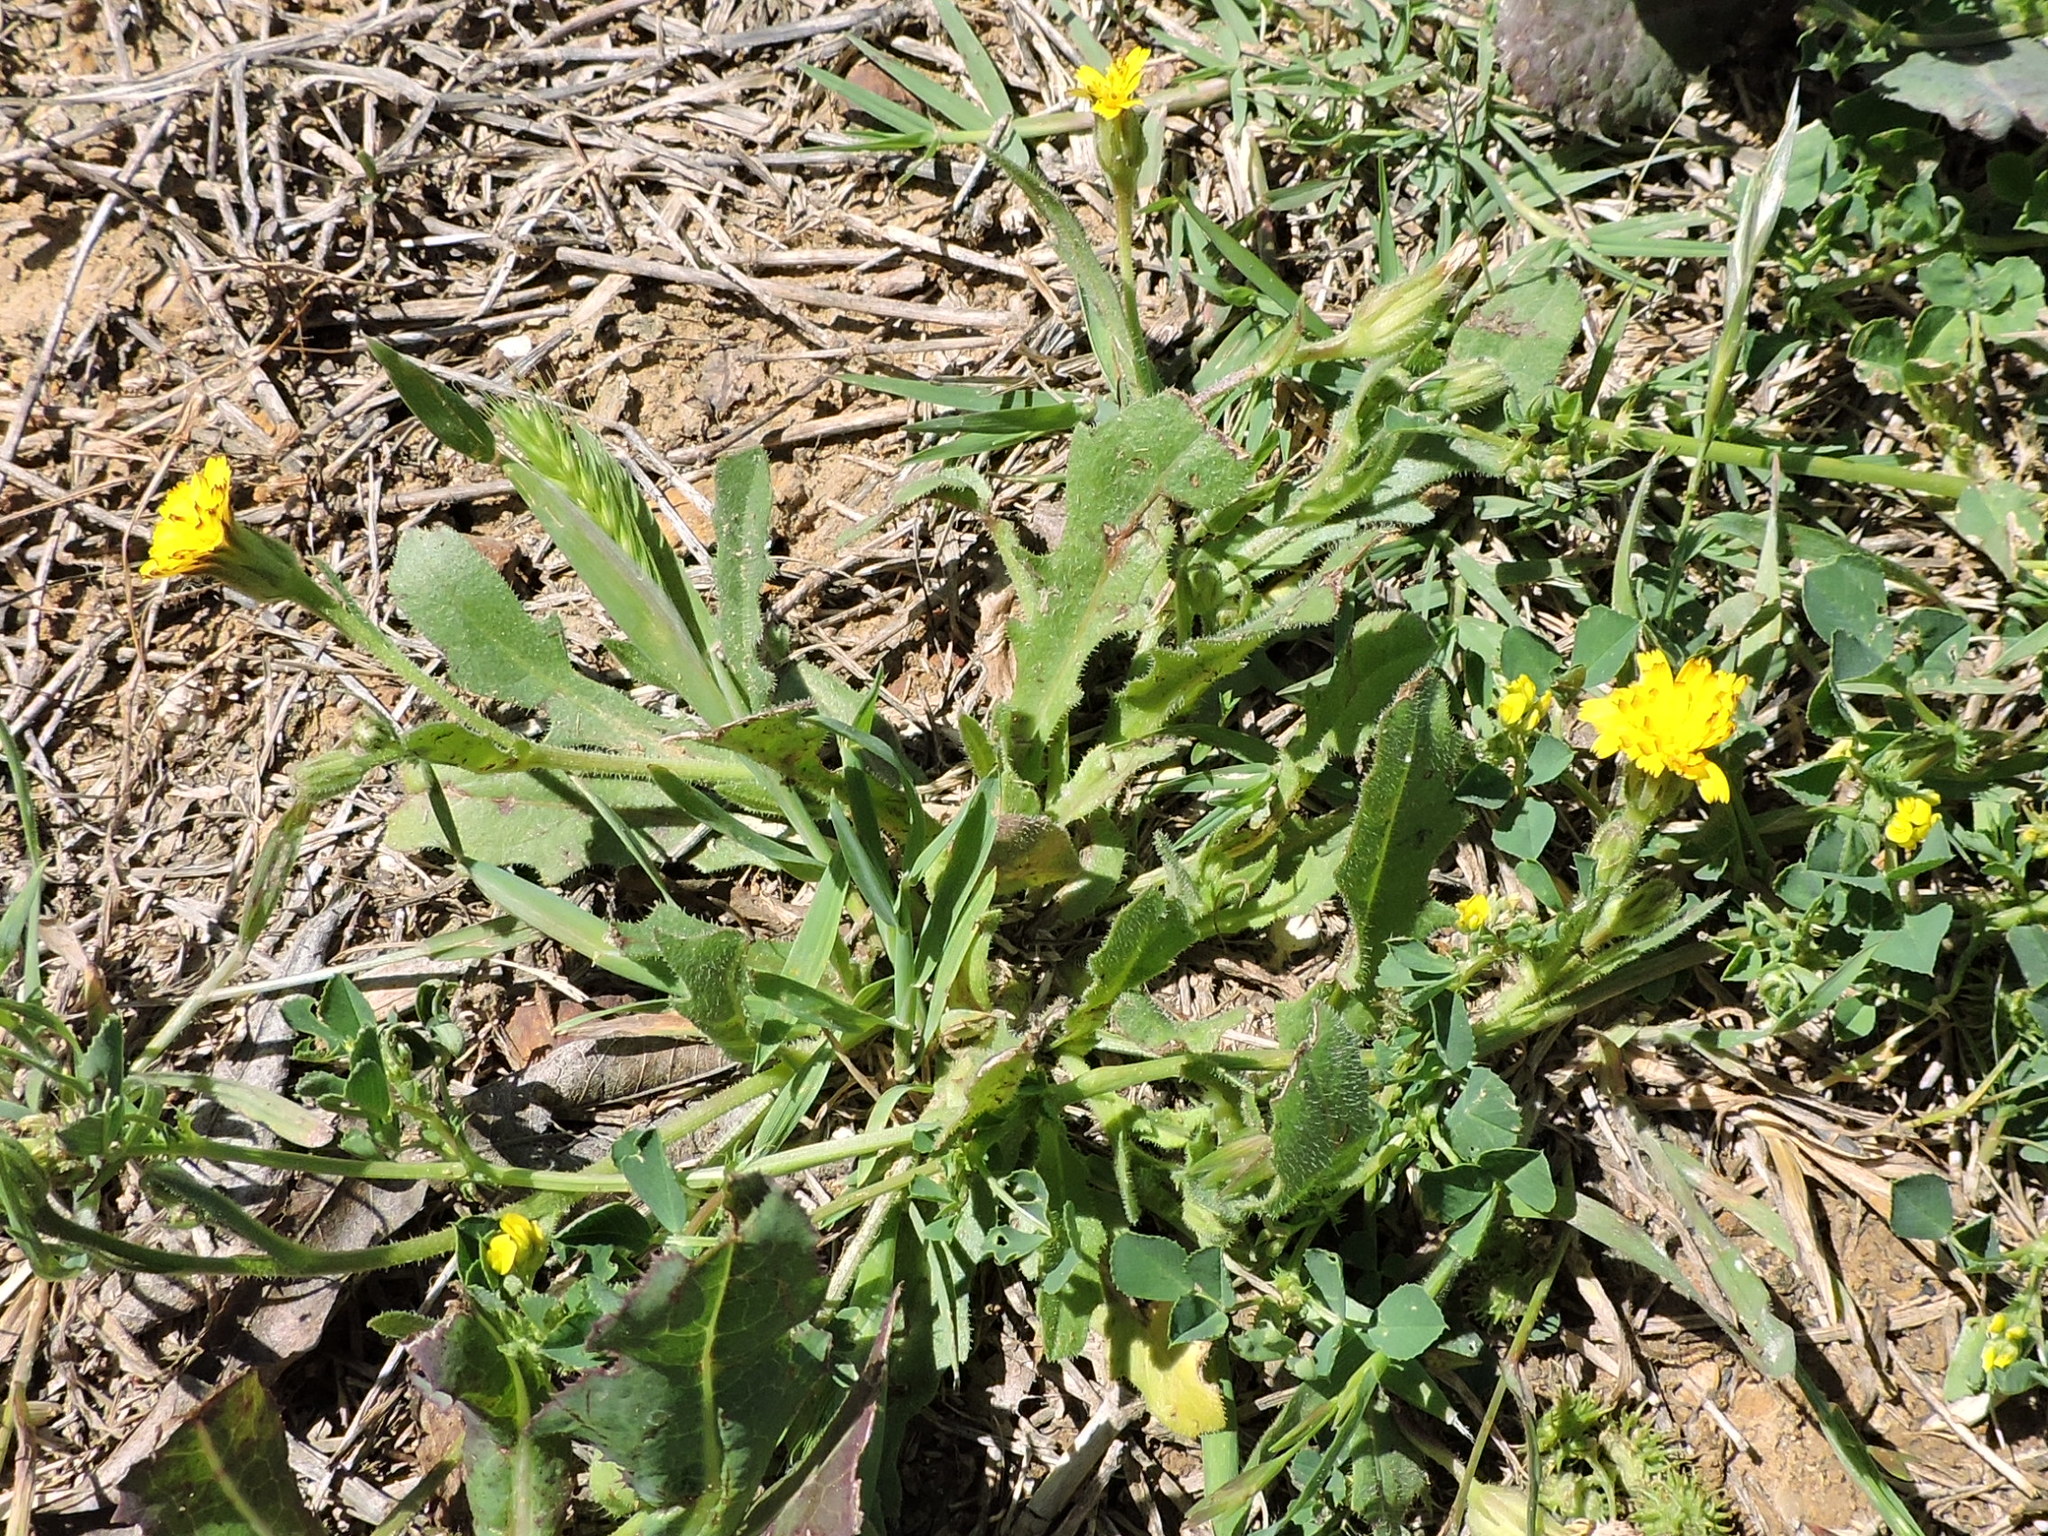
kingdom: Plantae
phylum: Tracheophyta
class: Magnoliopsida
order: Asterales
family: Asteraceae
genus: Hedypnois
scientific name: Hedypnois rhagadioloides
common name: Cretan weed
